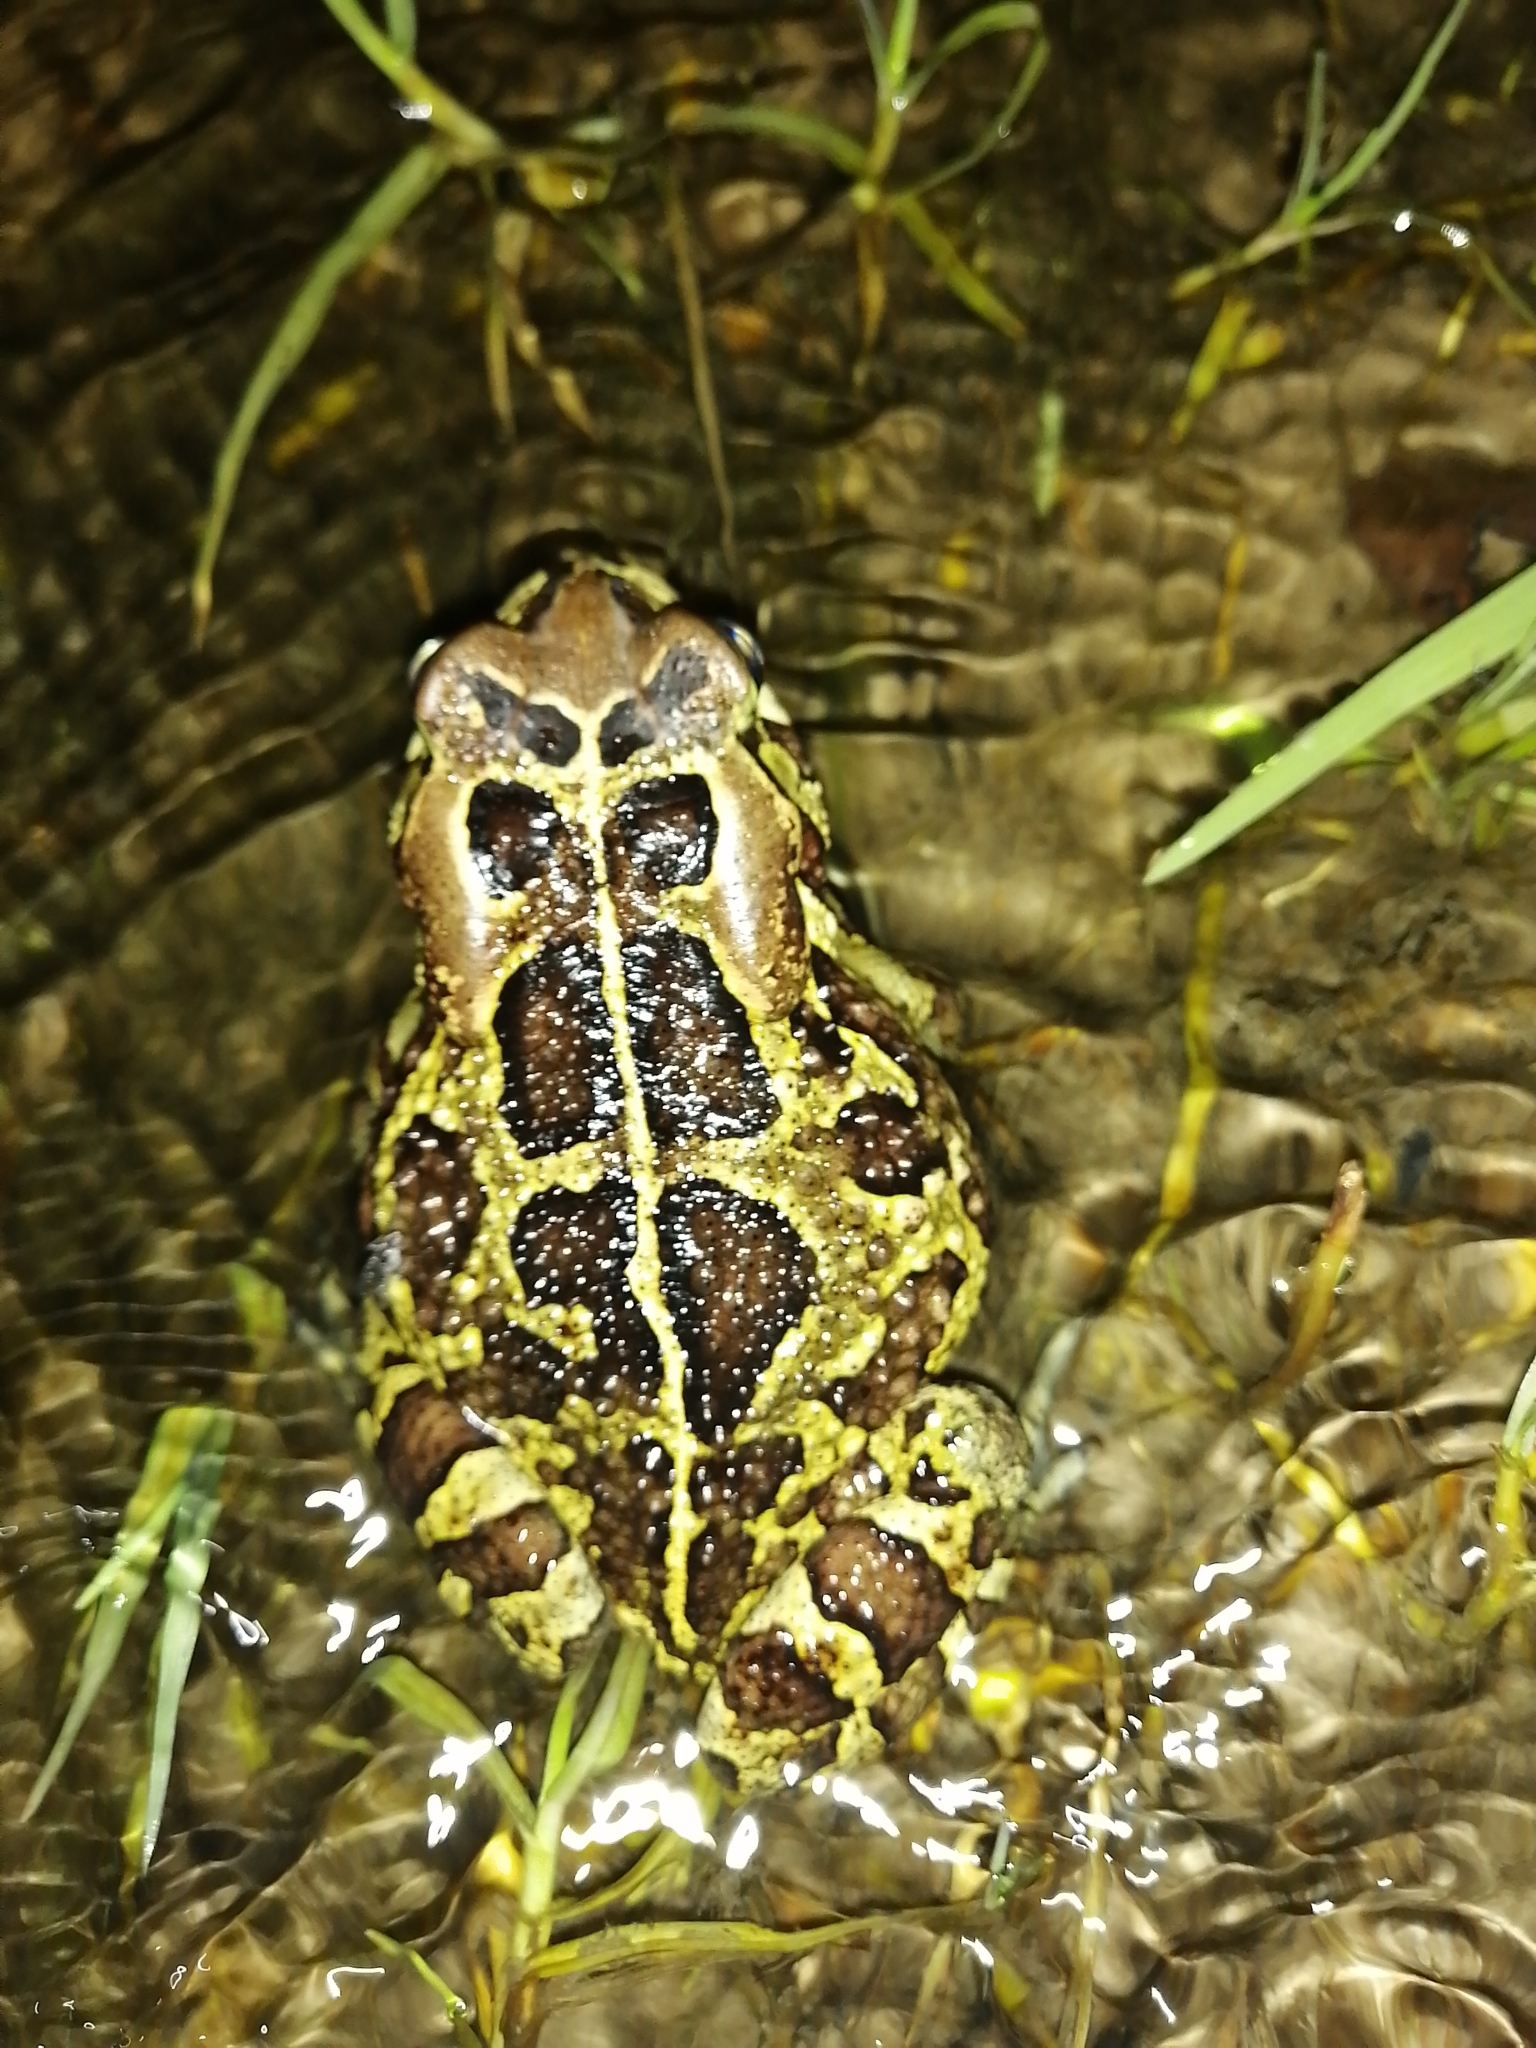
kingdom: Animalia
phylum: Chordata
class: Amphibia
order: Anura
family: Bufonidae
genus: Sclerophrys
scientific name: Sclerophrys pantherina
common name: Panther toad
